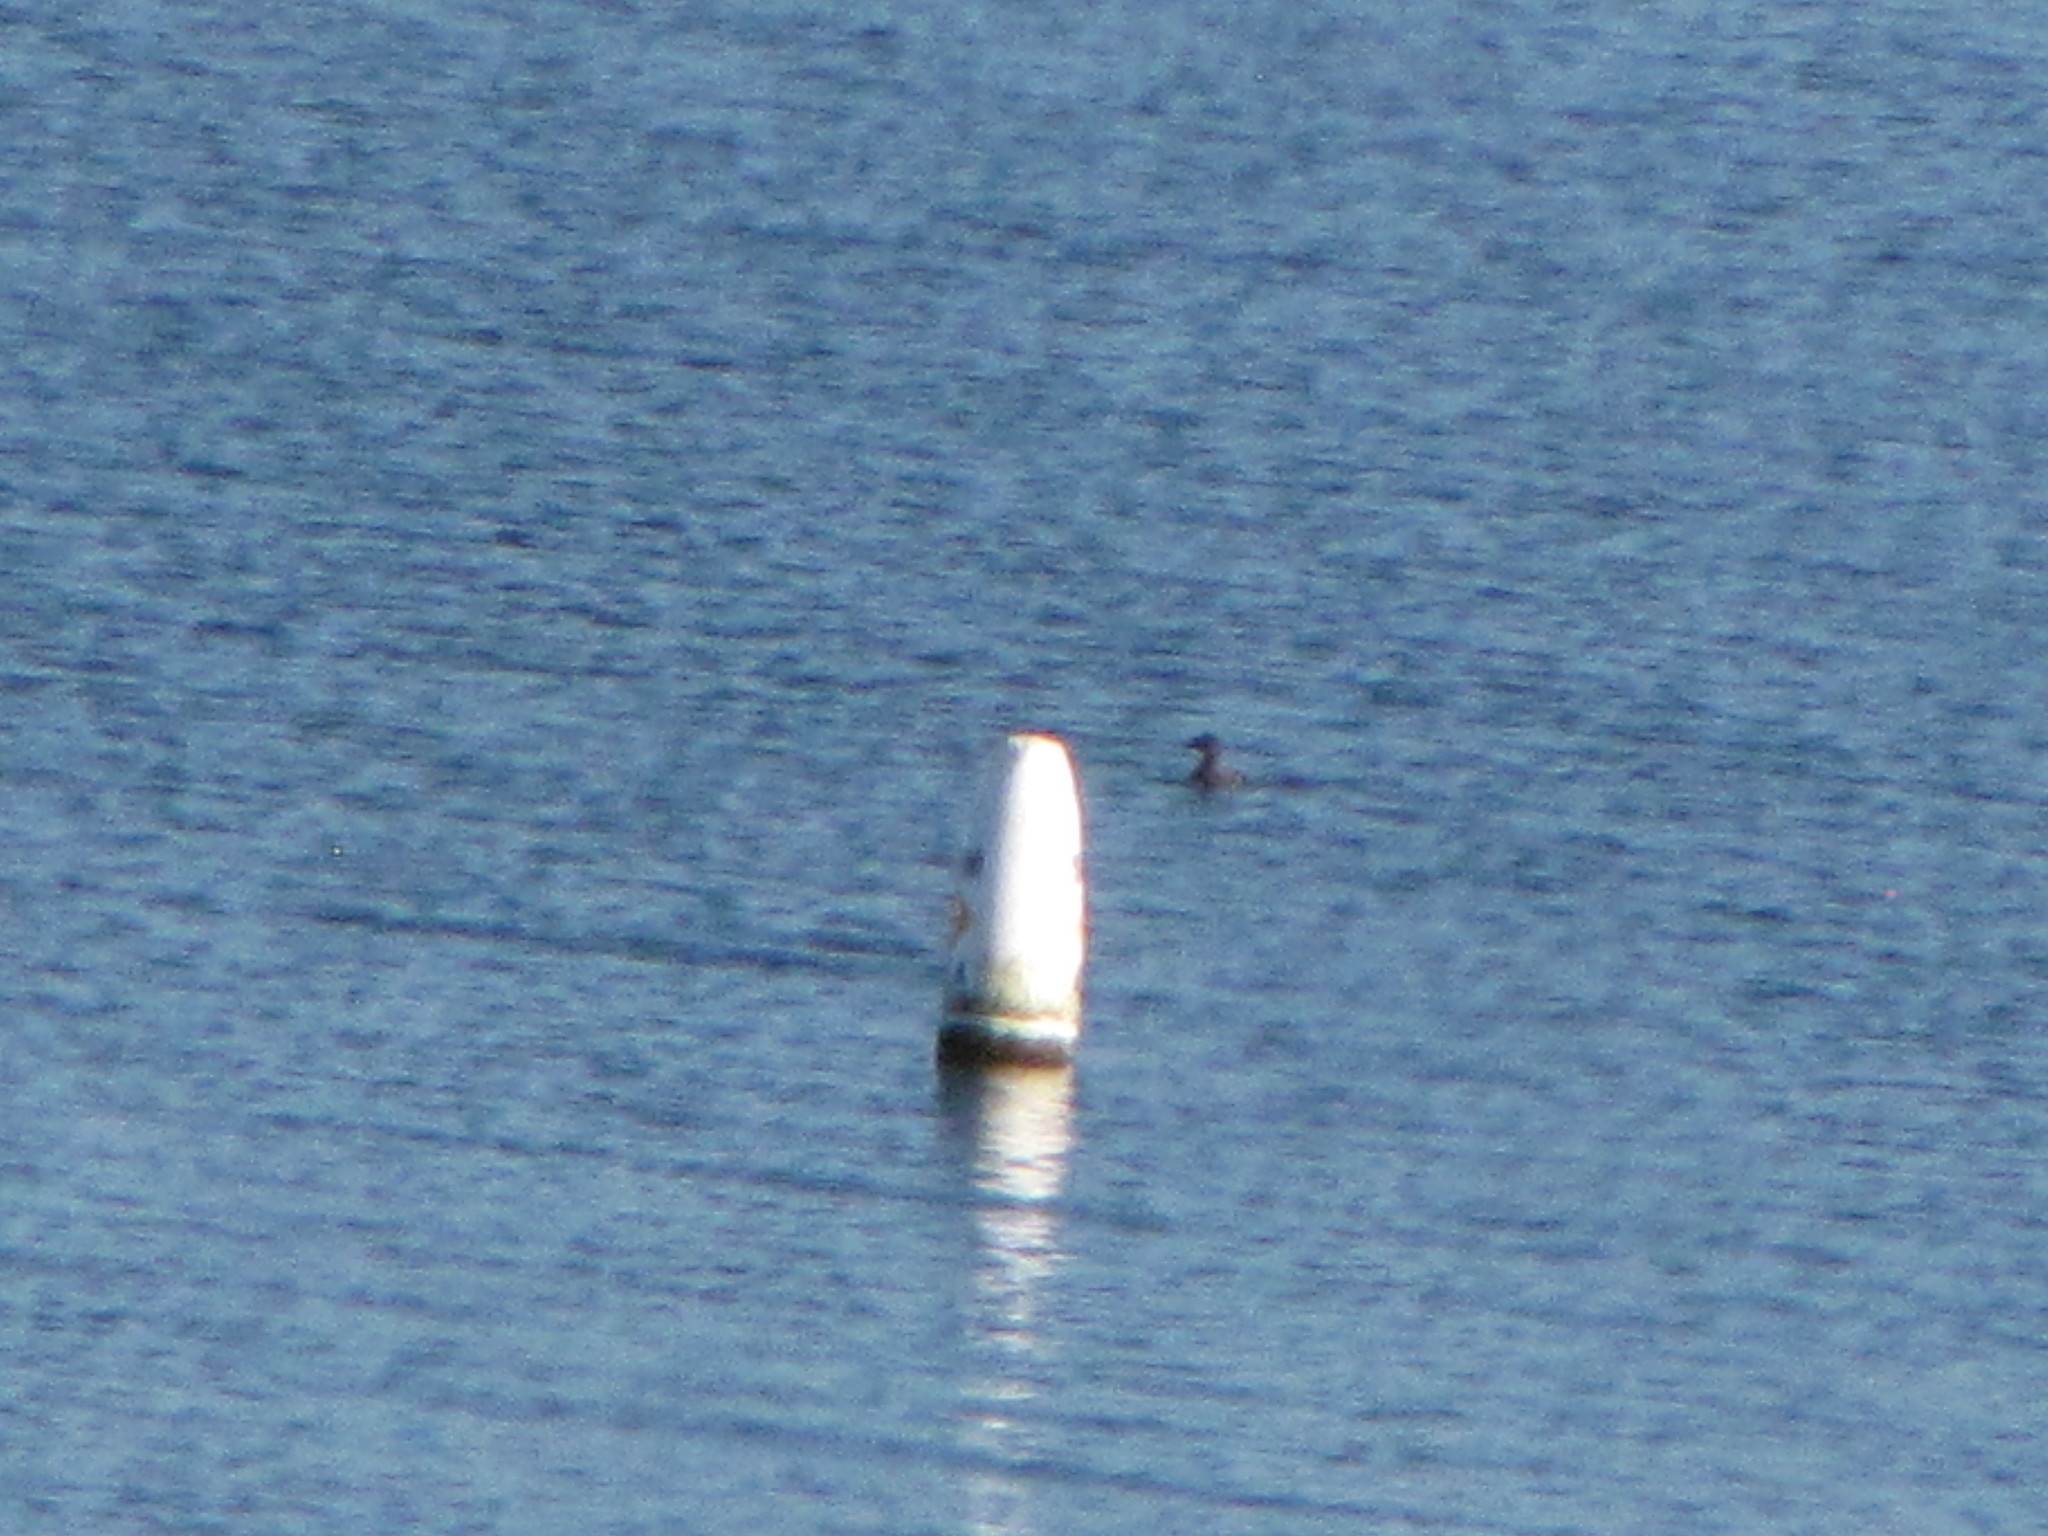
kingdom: Animalia
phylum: Chordata
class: Aves
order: Podicipediformes
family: Podicipedidae
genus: Podiceps
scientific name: Podiceps auritus
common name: Horned grebe
